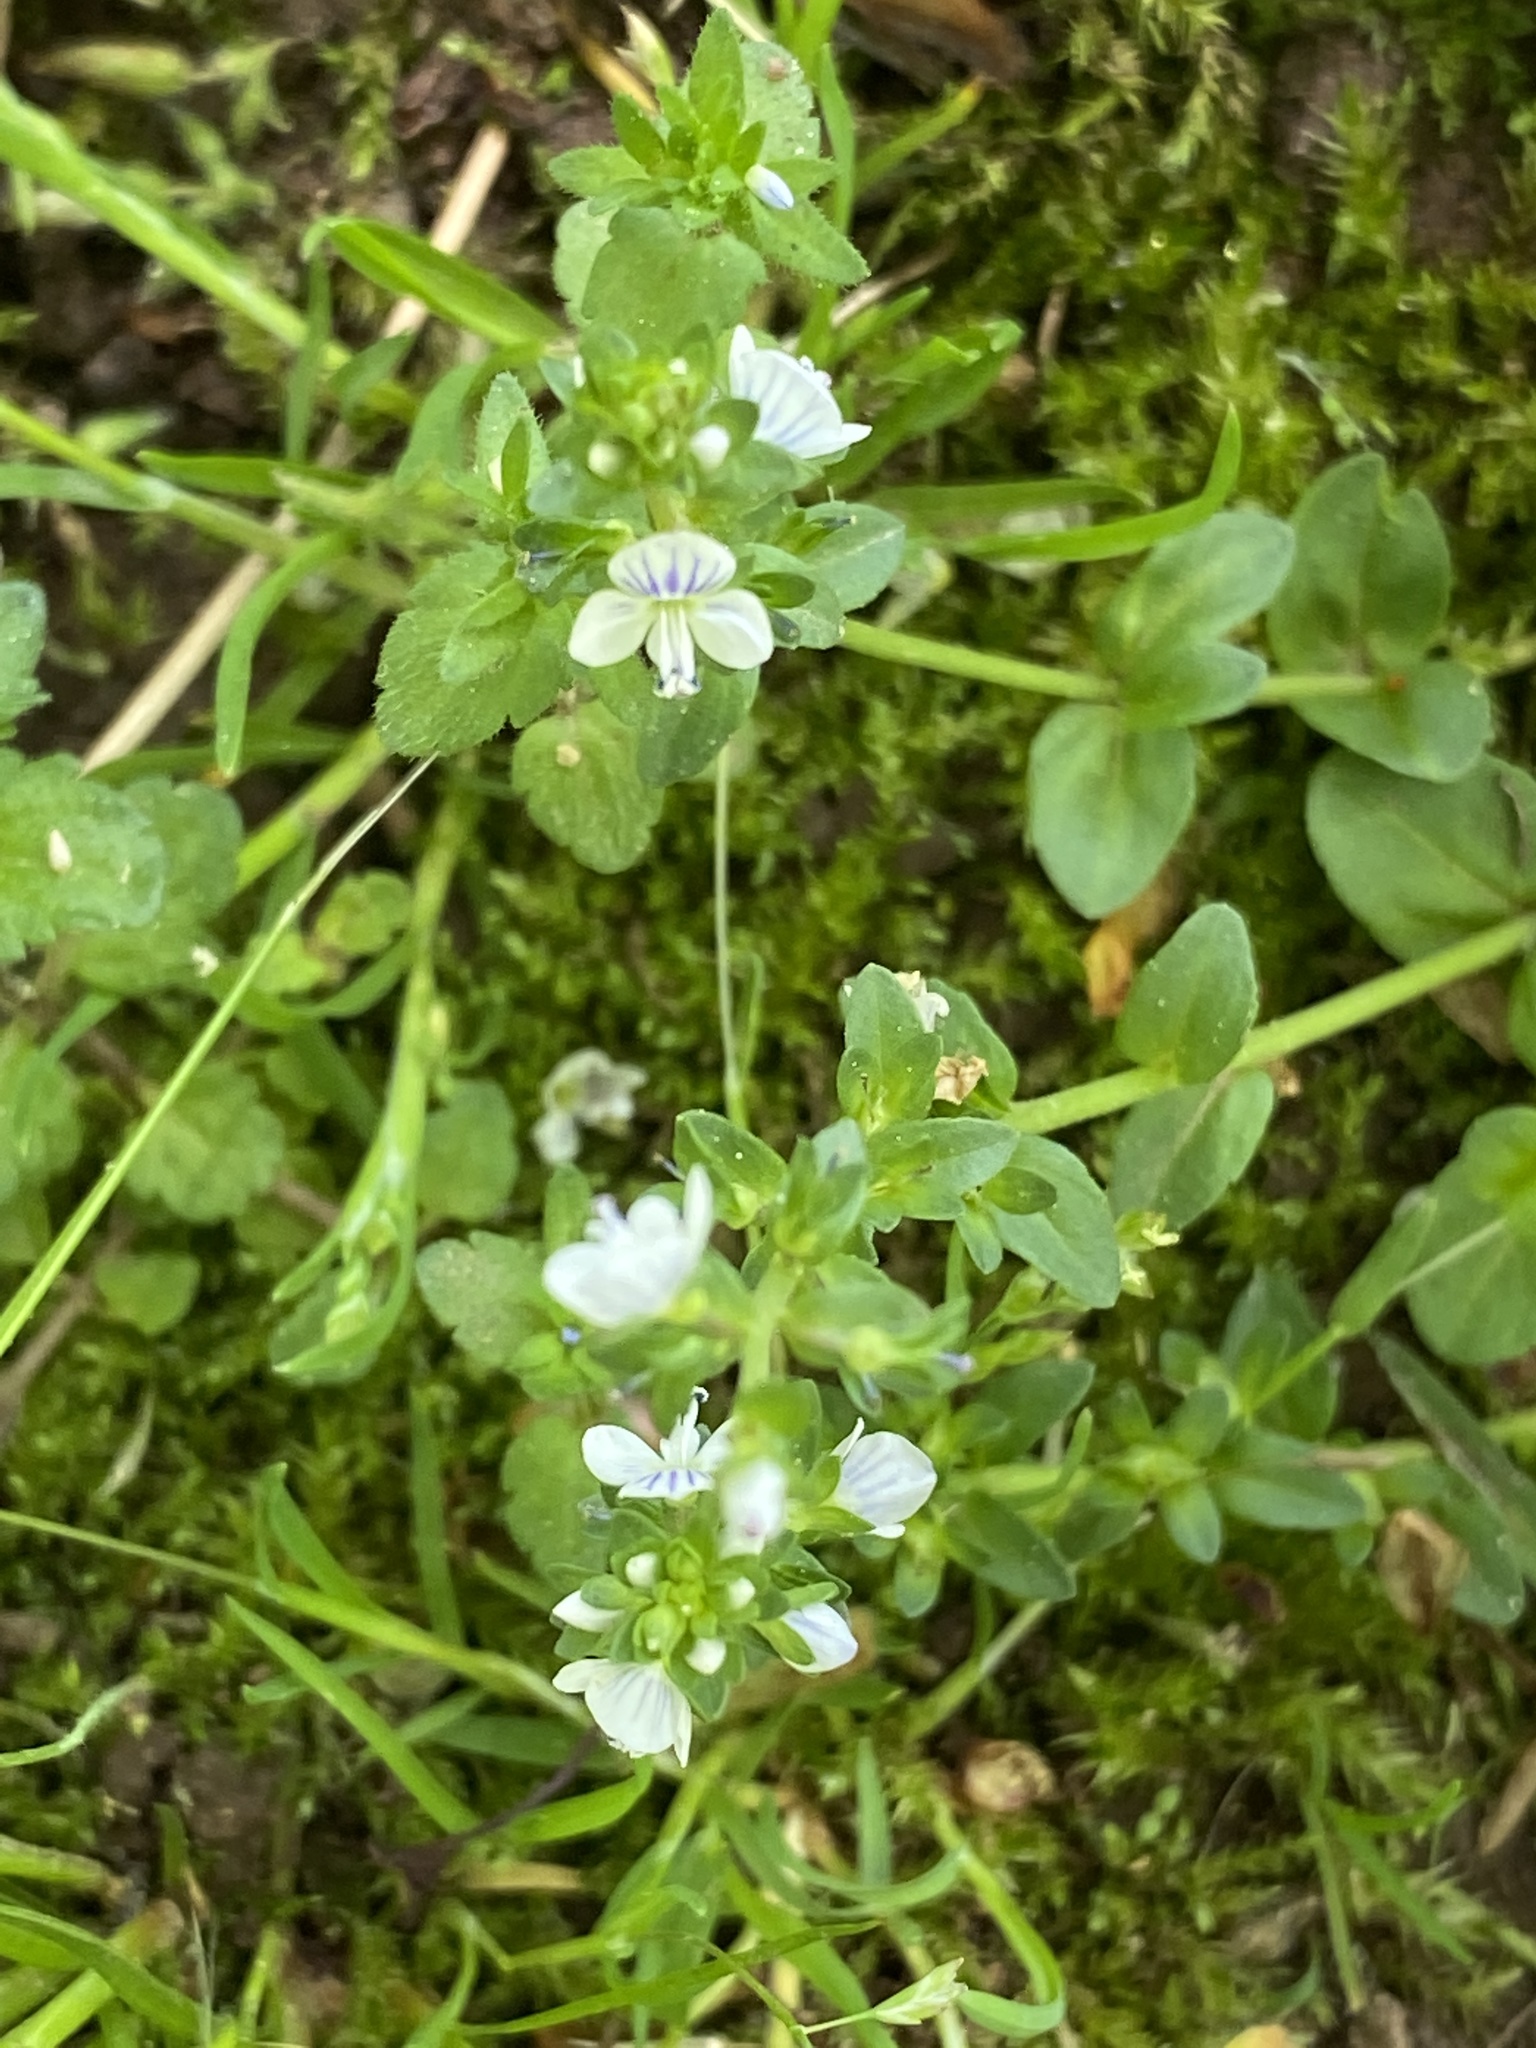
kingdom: Plantae
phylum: Tracheophyta
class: Magnoliopsida
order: Lamiales
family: Plantaginaceae
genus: Veronica
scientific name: Veronica serpyllifolia
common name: Thyme-leaved speedwell
